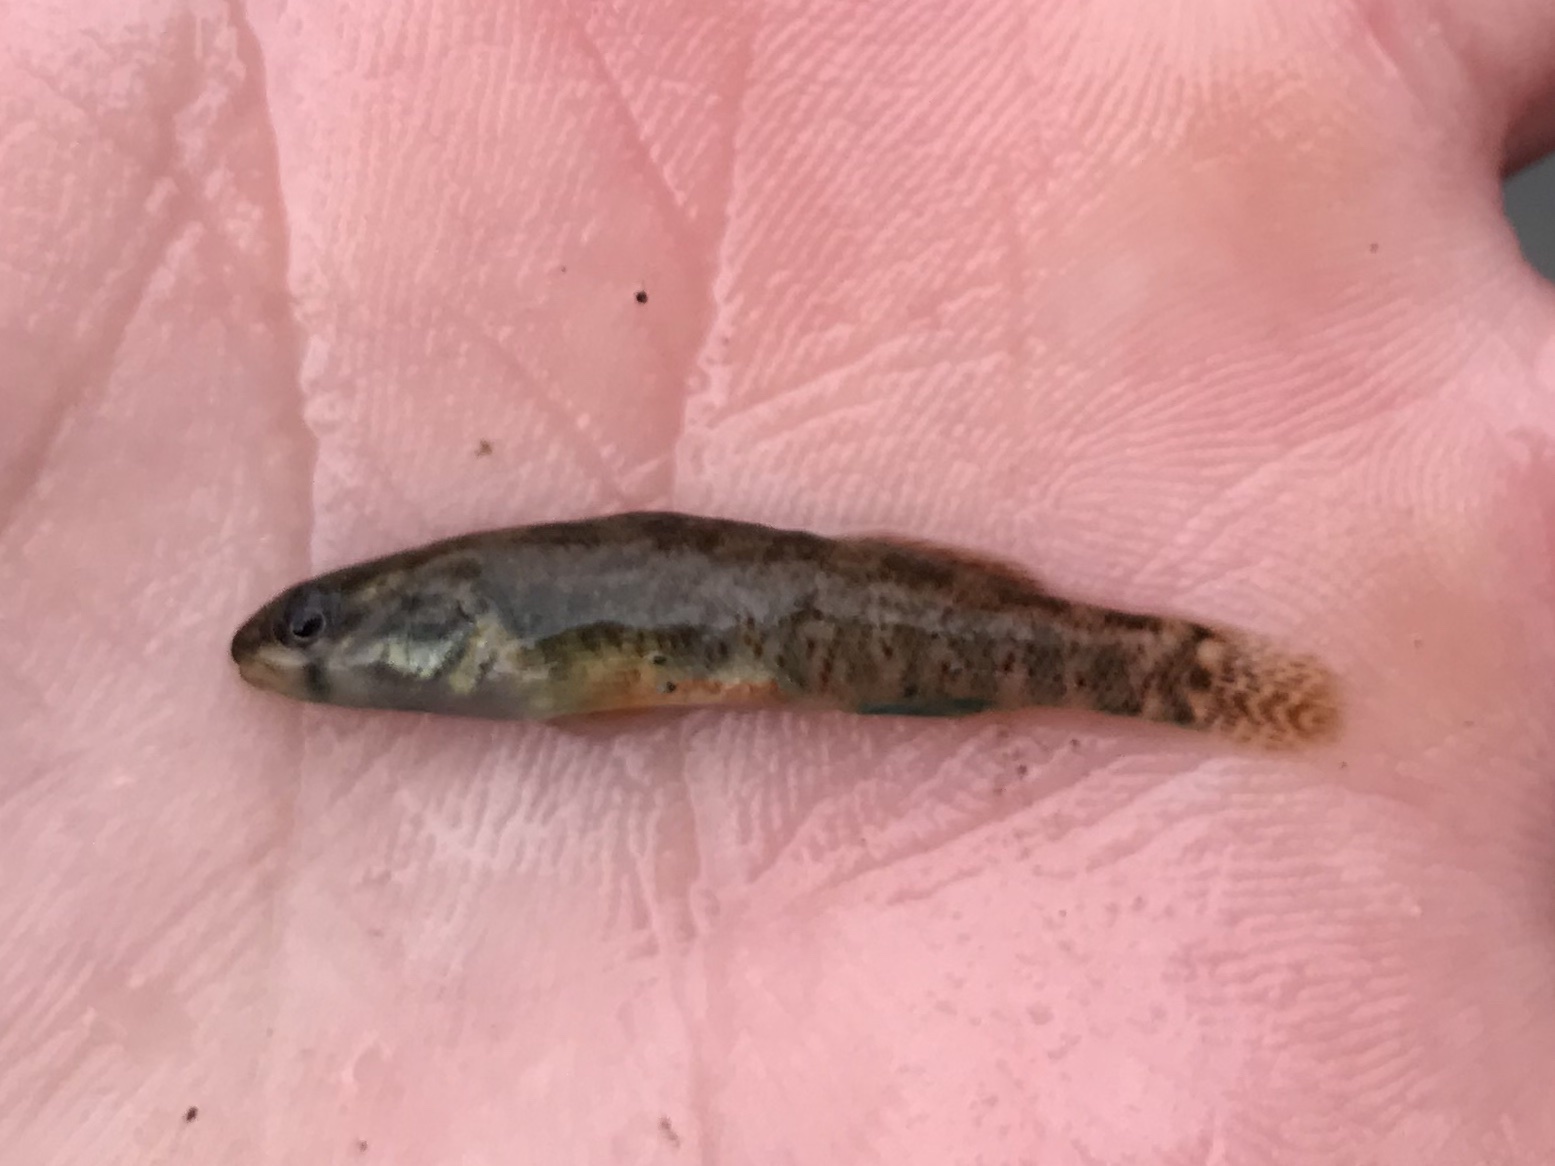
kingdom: Animalia
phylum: Chordata
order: Perciformes
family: Percidae
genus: Etheostoma
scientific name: Etheostoma lepidum
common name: Greenthroat darter
